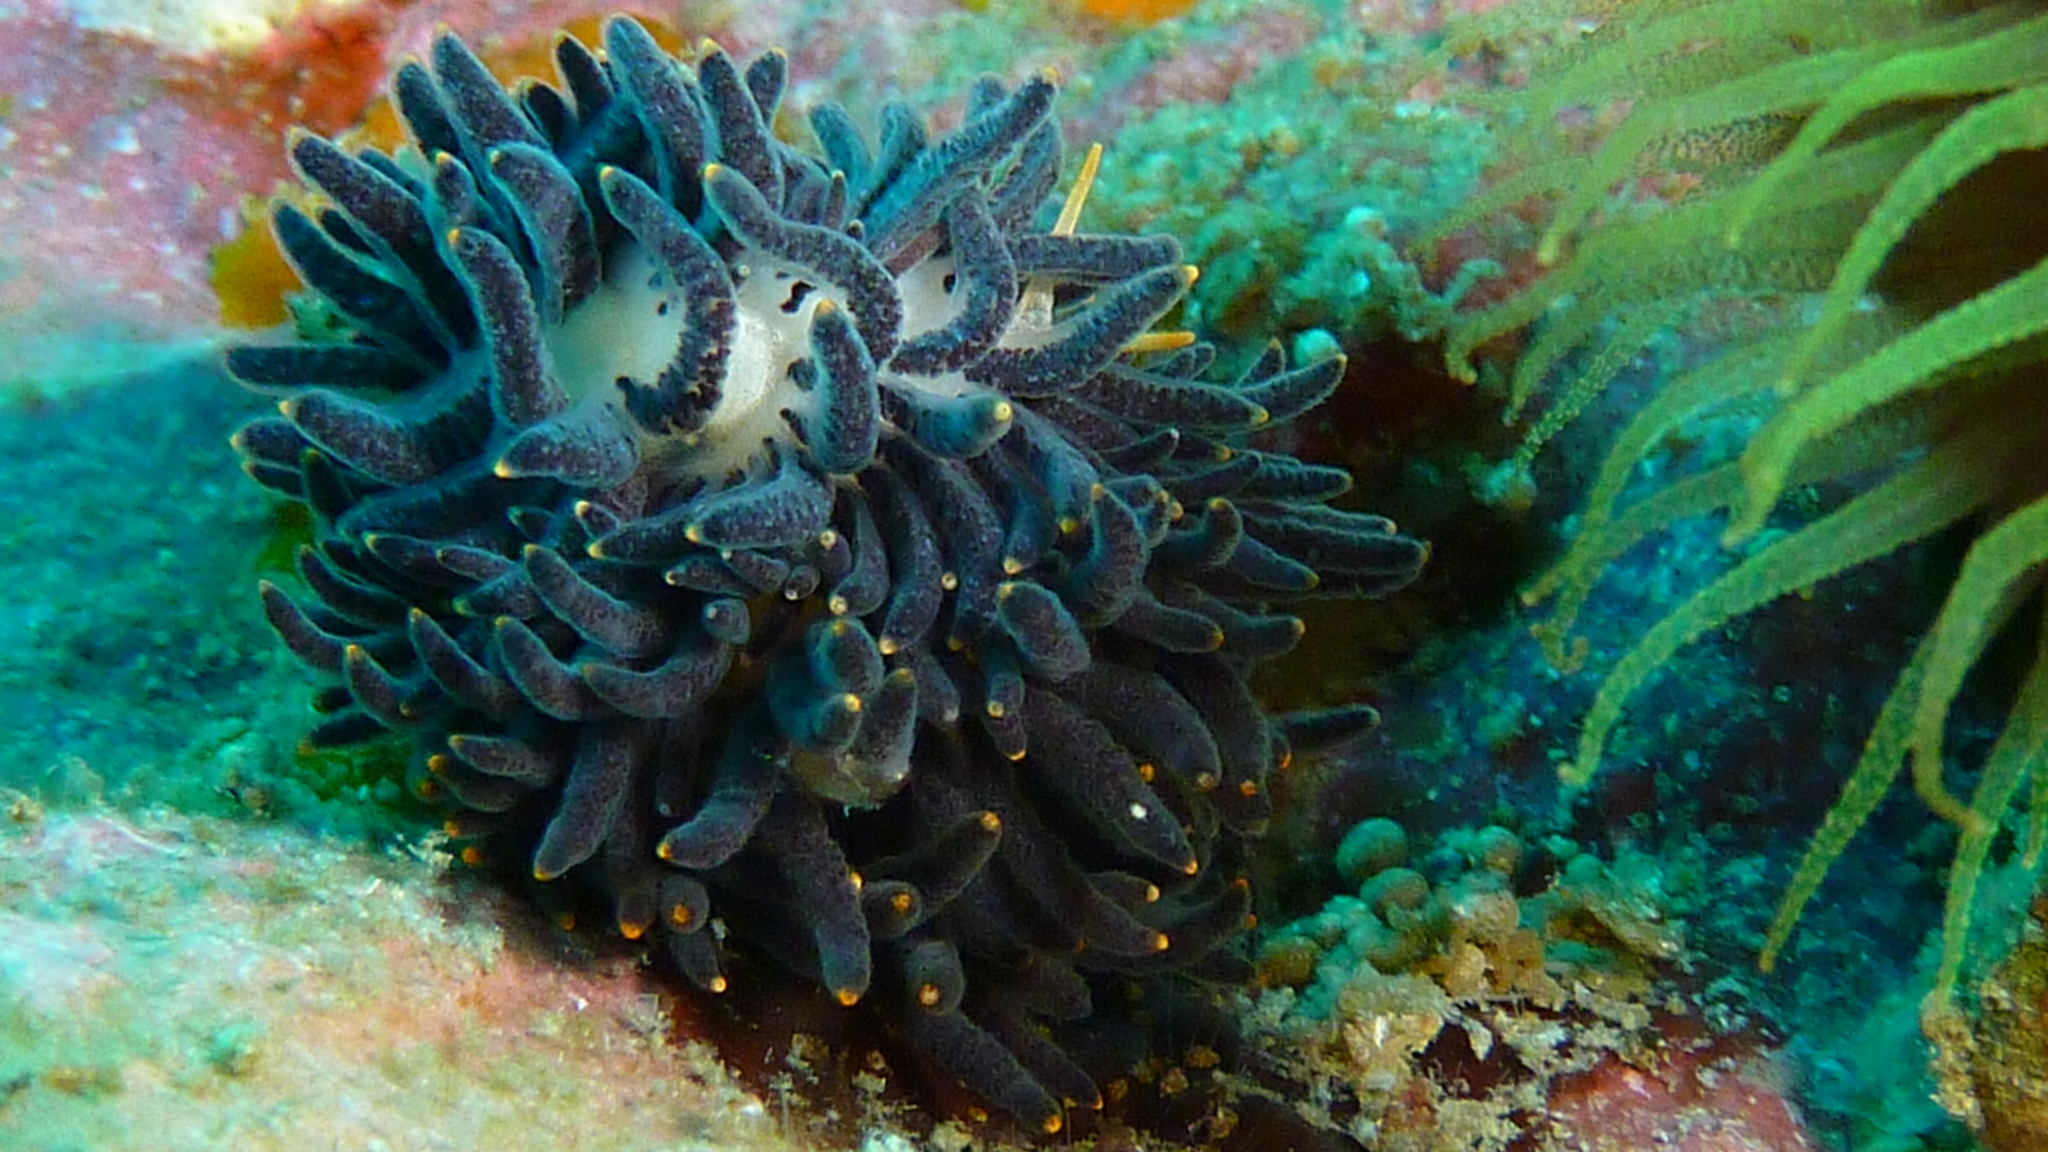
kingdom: Animalia
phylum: Mollusca
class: Gastropoda
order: Nudibranchia
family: Trinchesiidae
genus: Phestilla
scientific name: Phestilla melanobrachia
